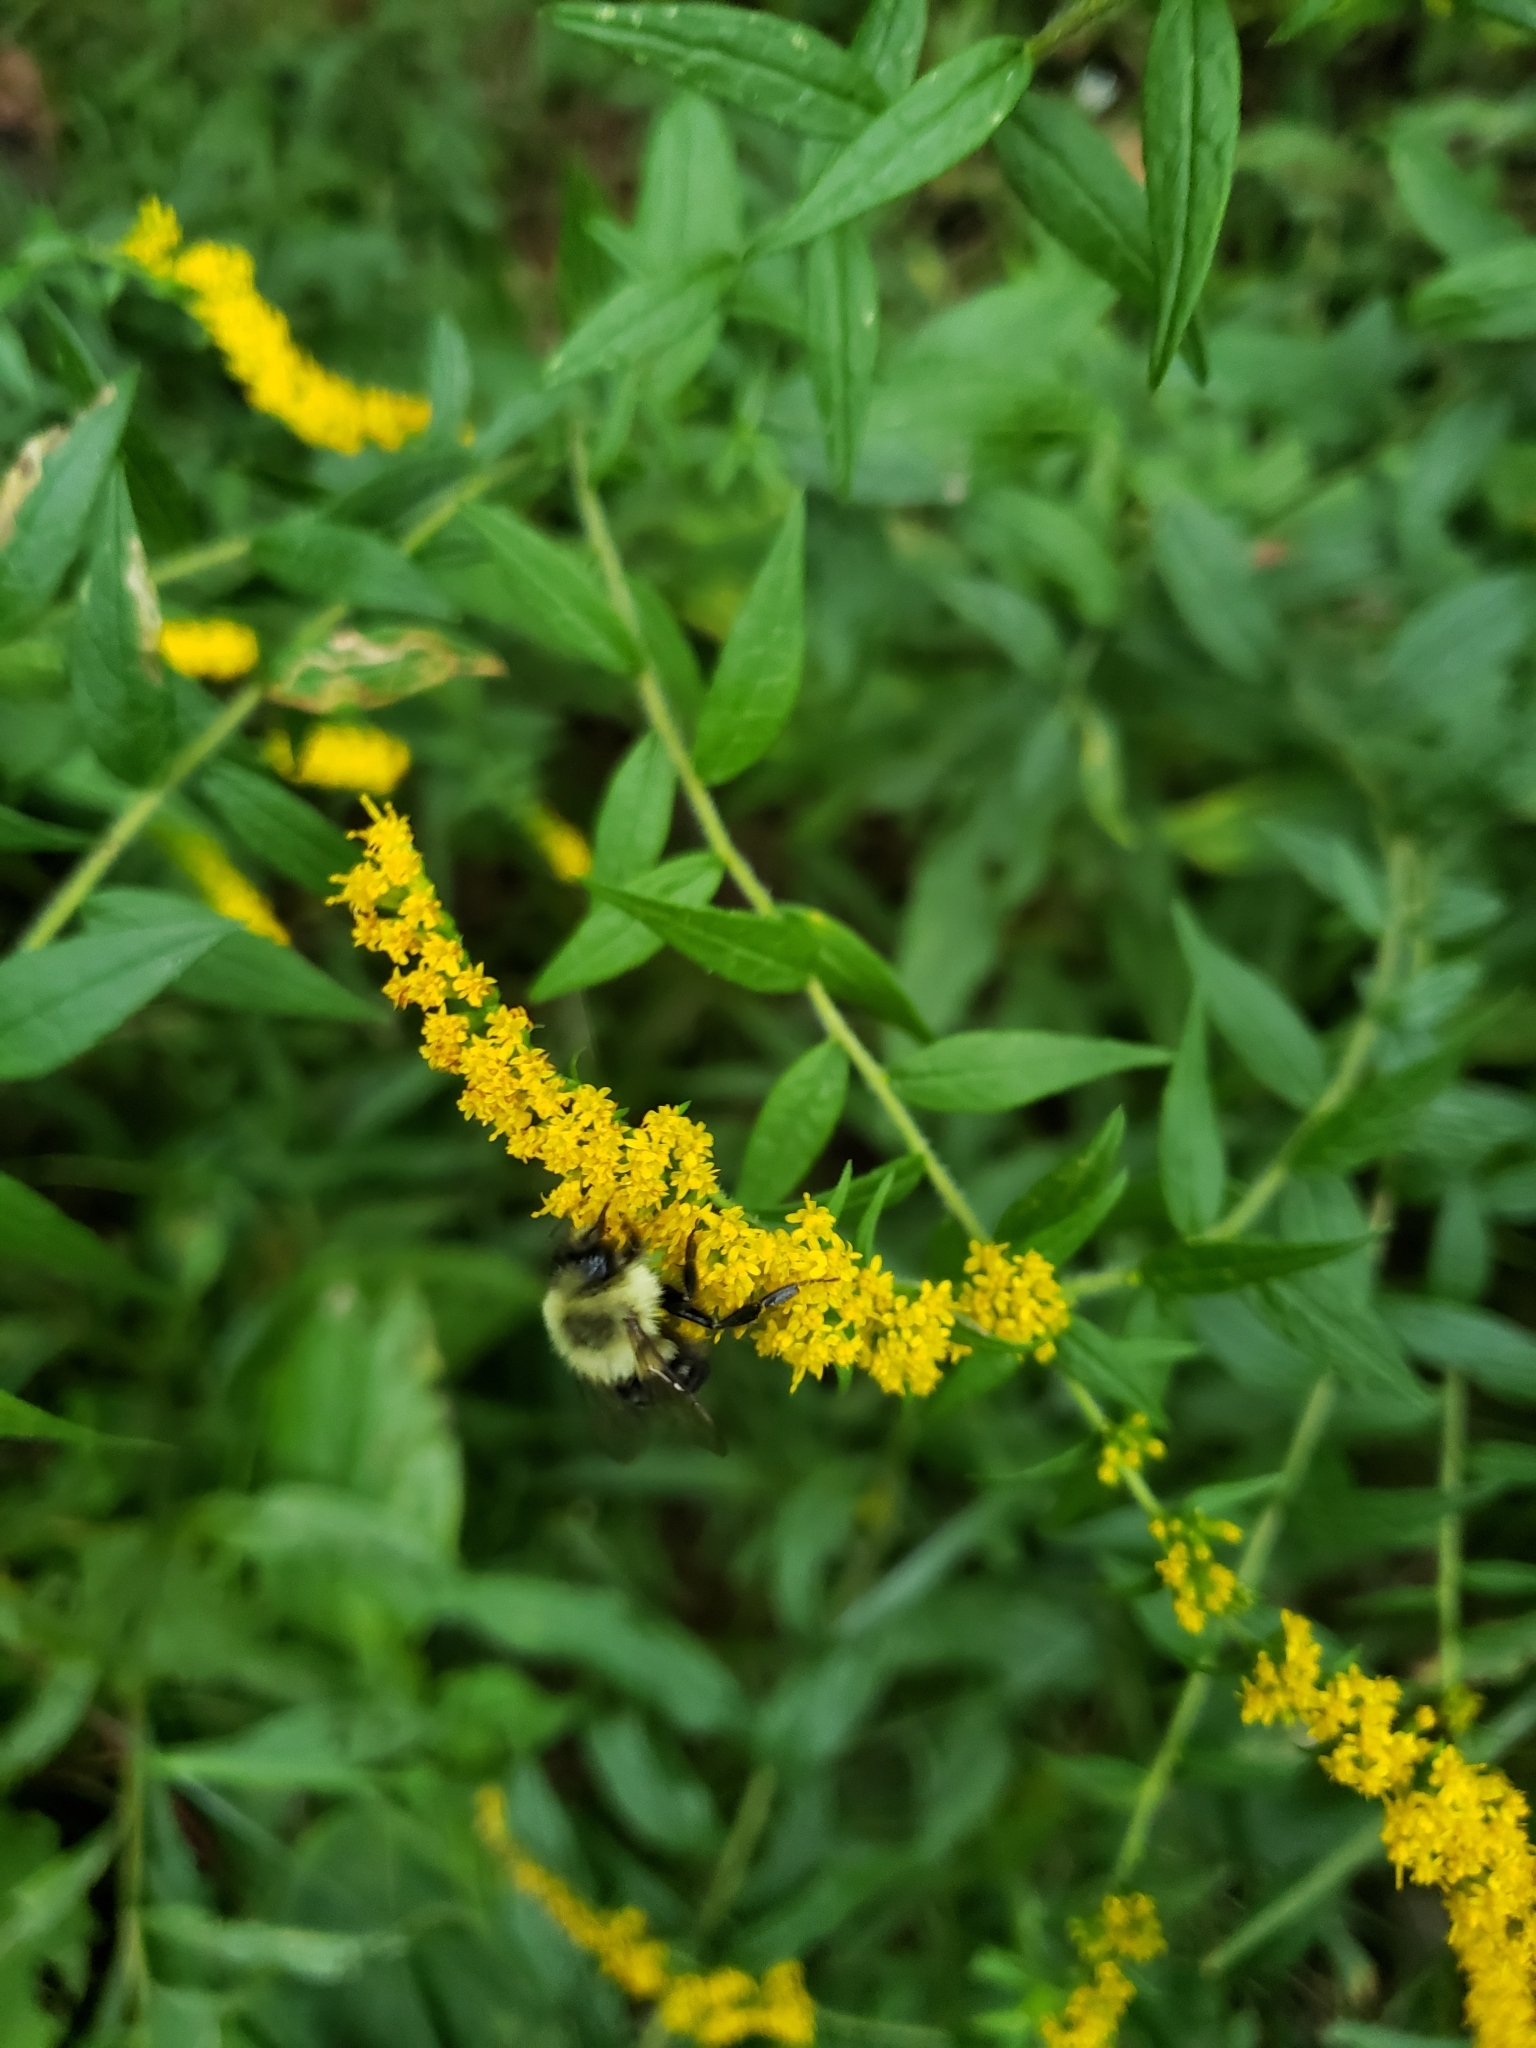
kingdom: Animalia
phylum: Arthropoda
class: Insecta
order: Hymenoptera
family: Apidae
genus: Bombus
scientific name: Bombus impatiens
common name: Common eastern bumble bee
